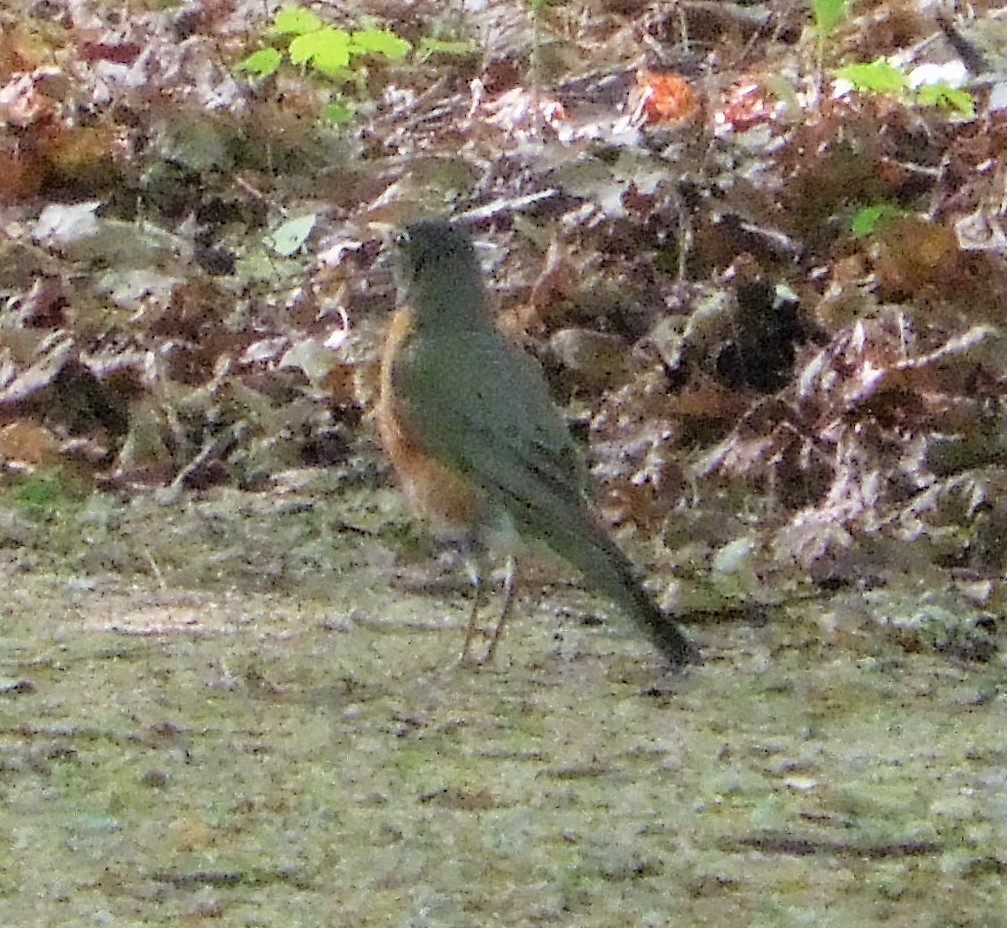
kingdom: Animalia
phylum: Chordata
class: Aves
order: Passeriformes
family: Turdidae
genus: Turdus
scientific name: Turdus migratorius
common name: American robin
